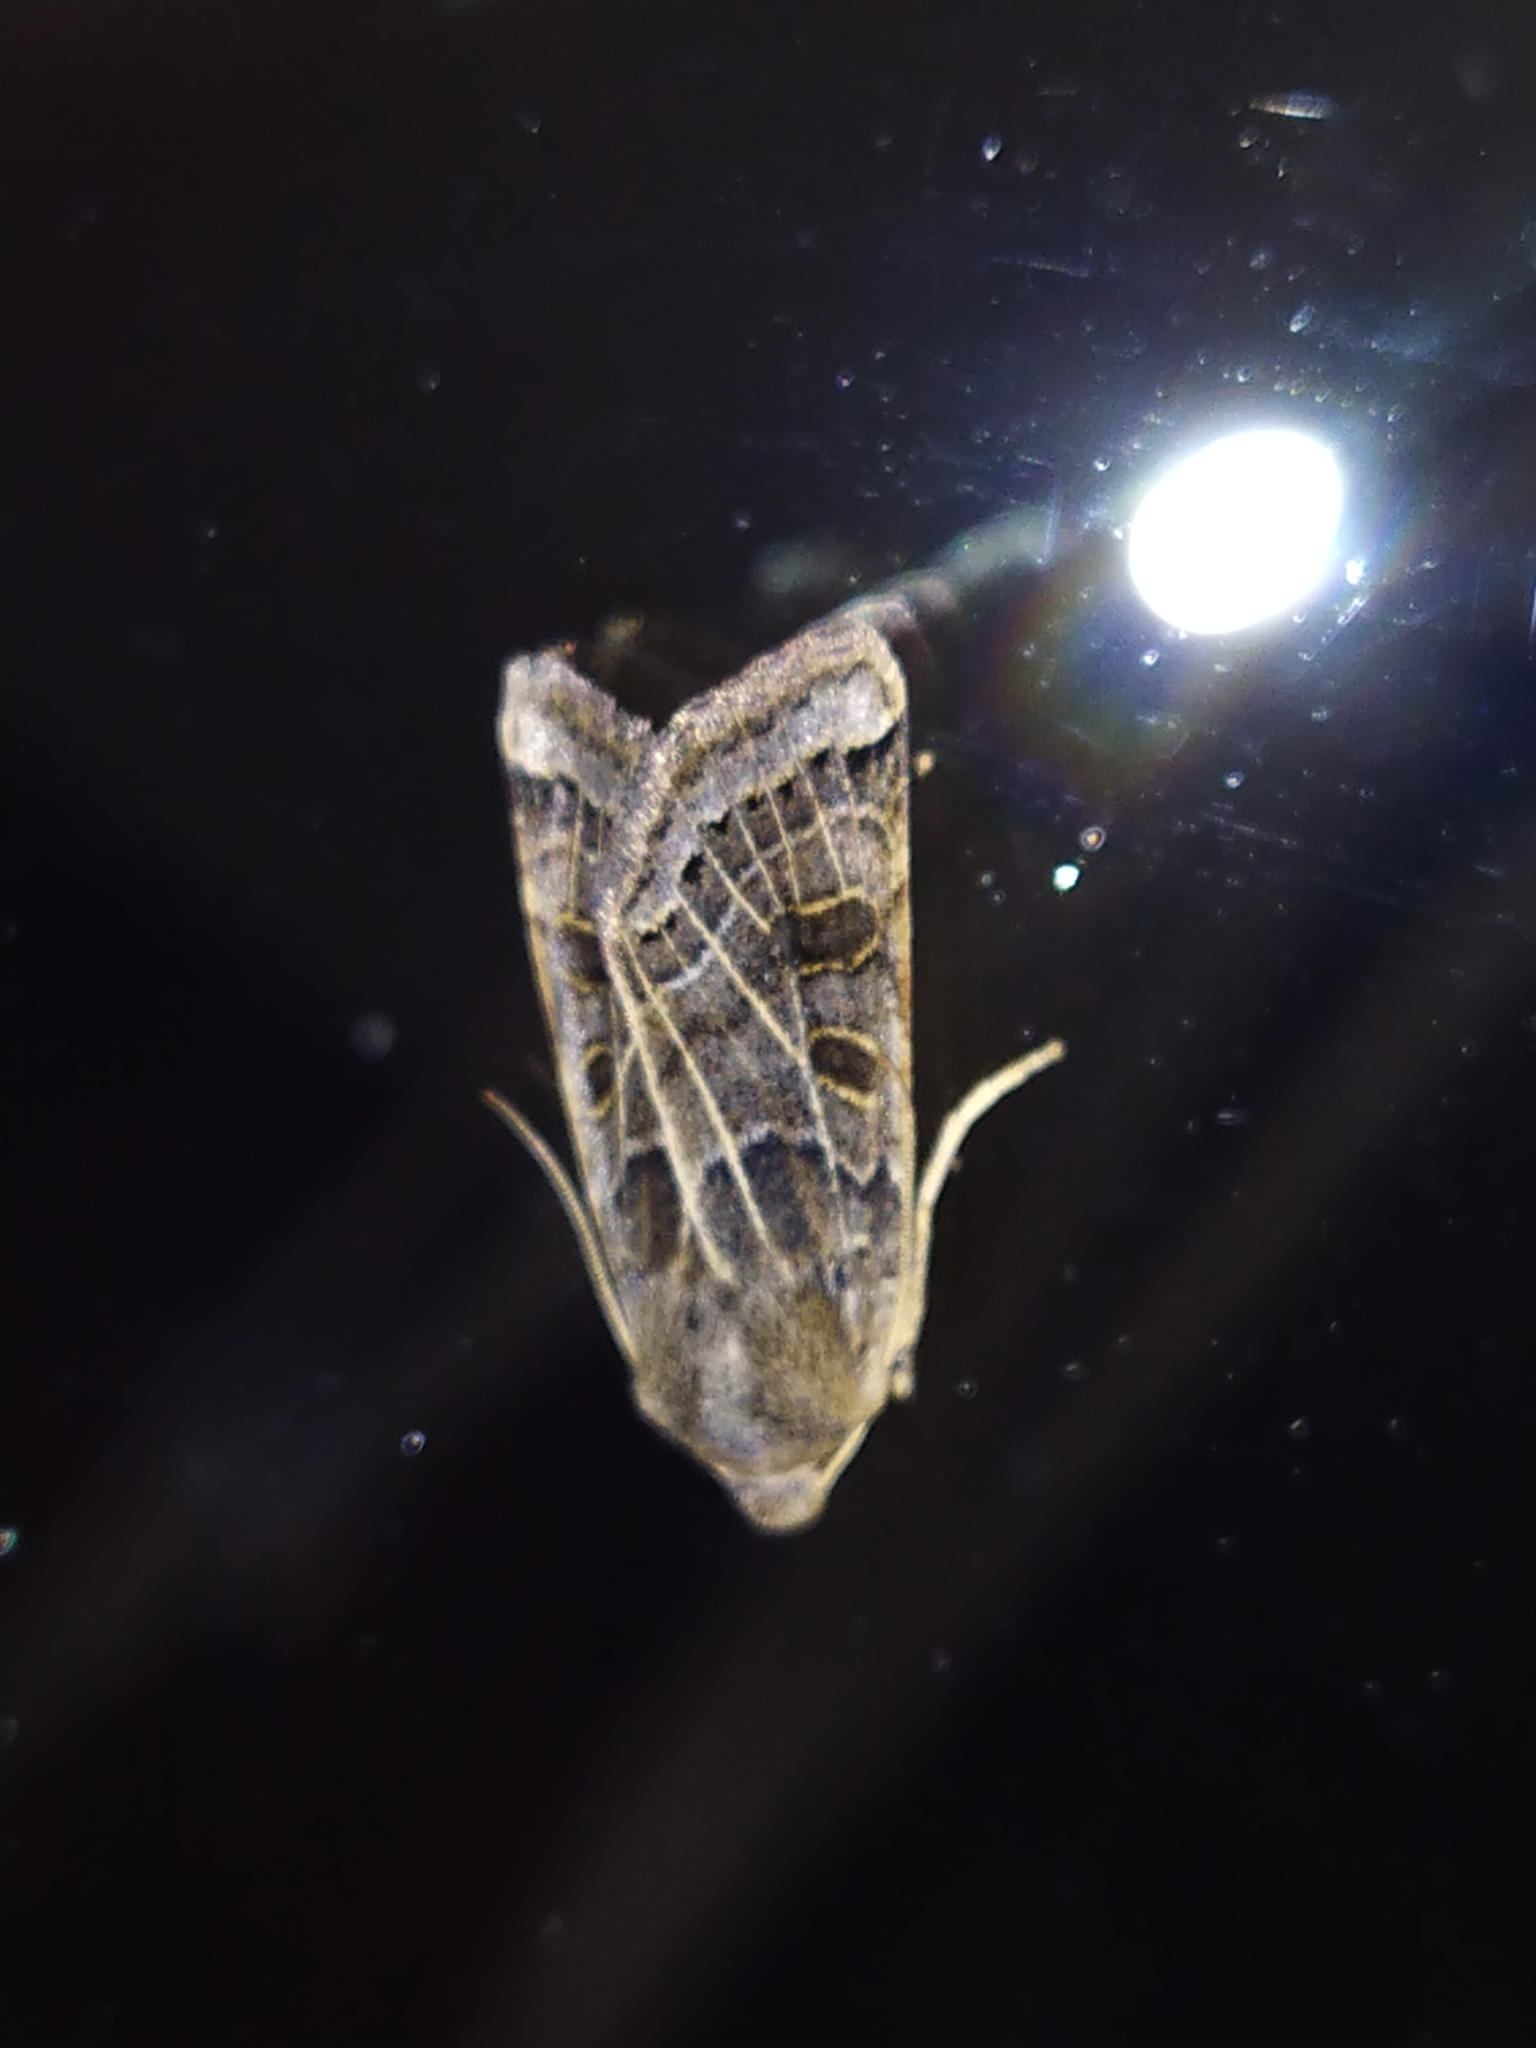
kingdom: Animalia
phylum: Arthropoda
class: Insecta
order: Lepidoptera
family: Noctuidae
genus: Agrochola
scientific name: Agrochola lunosa
